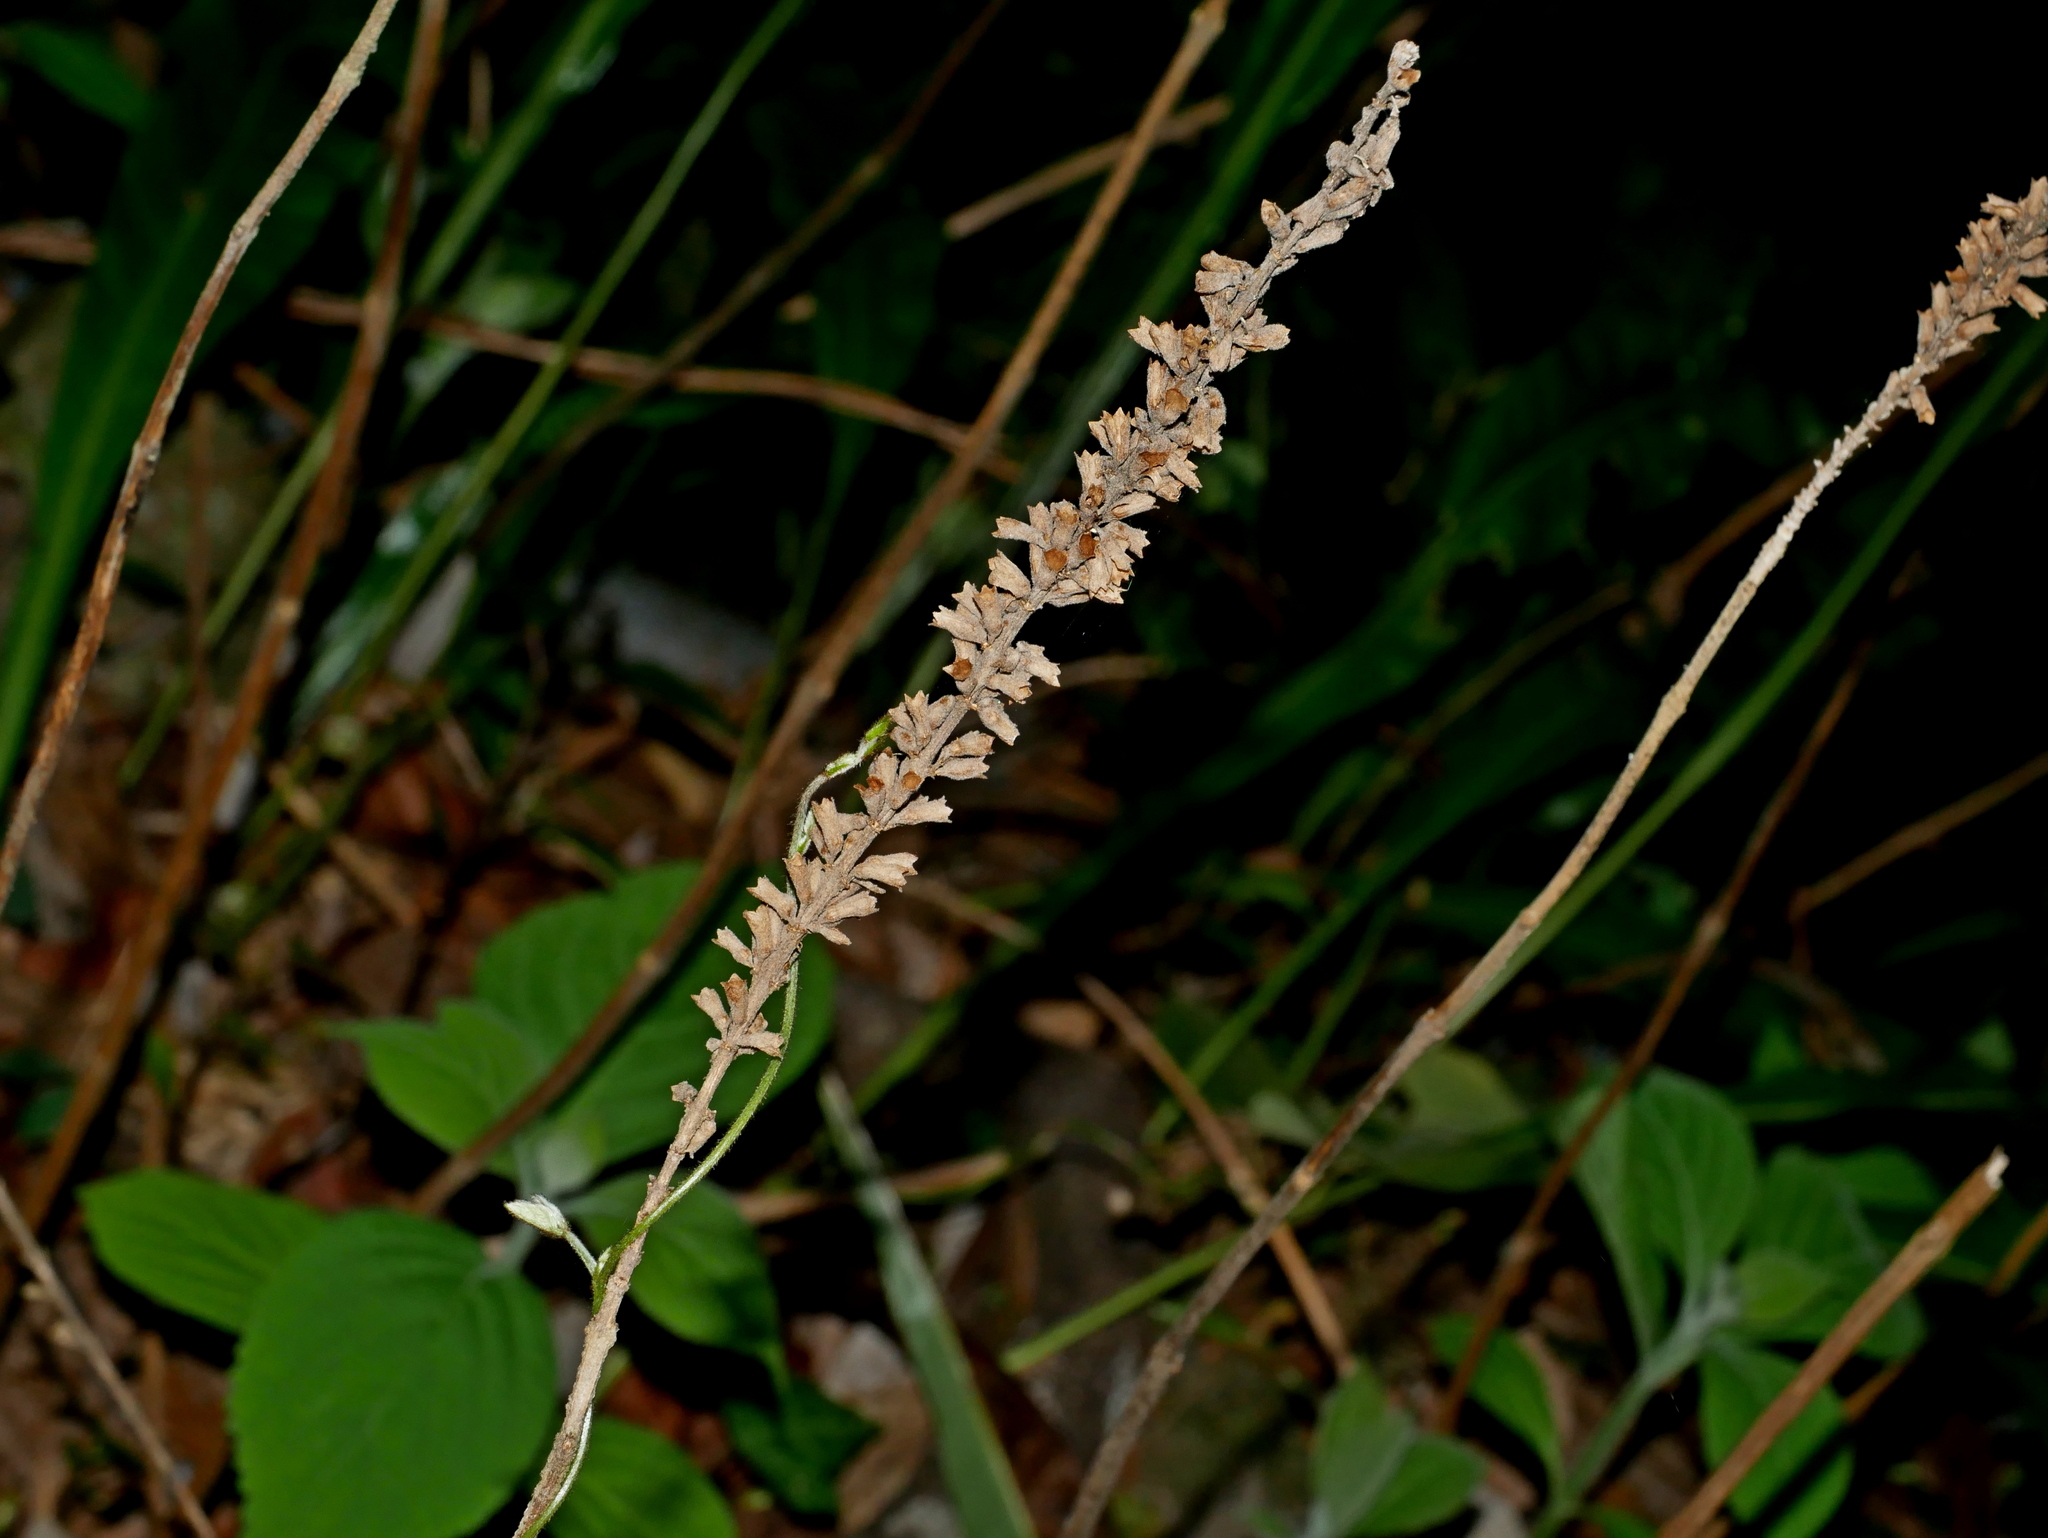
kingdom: Plantae
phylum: Tracheophyta
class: Magnoliopsida
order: Lamiales
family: Lamiaceae
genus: Comanthosphace
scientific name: Comanthosphace formosana
